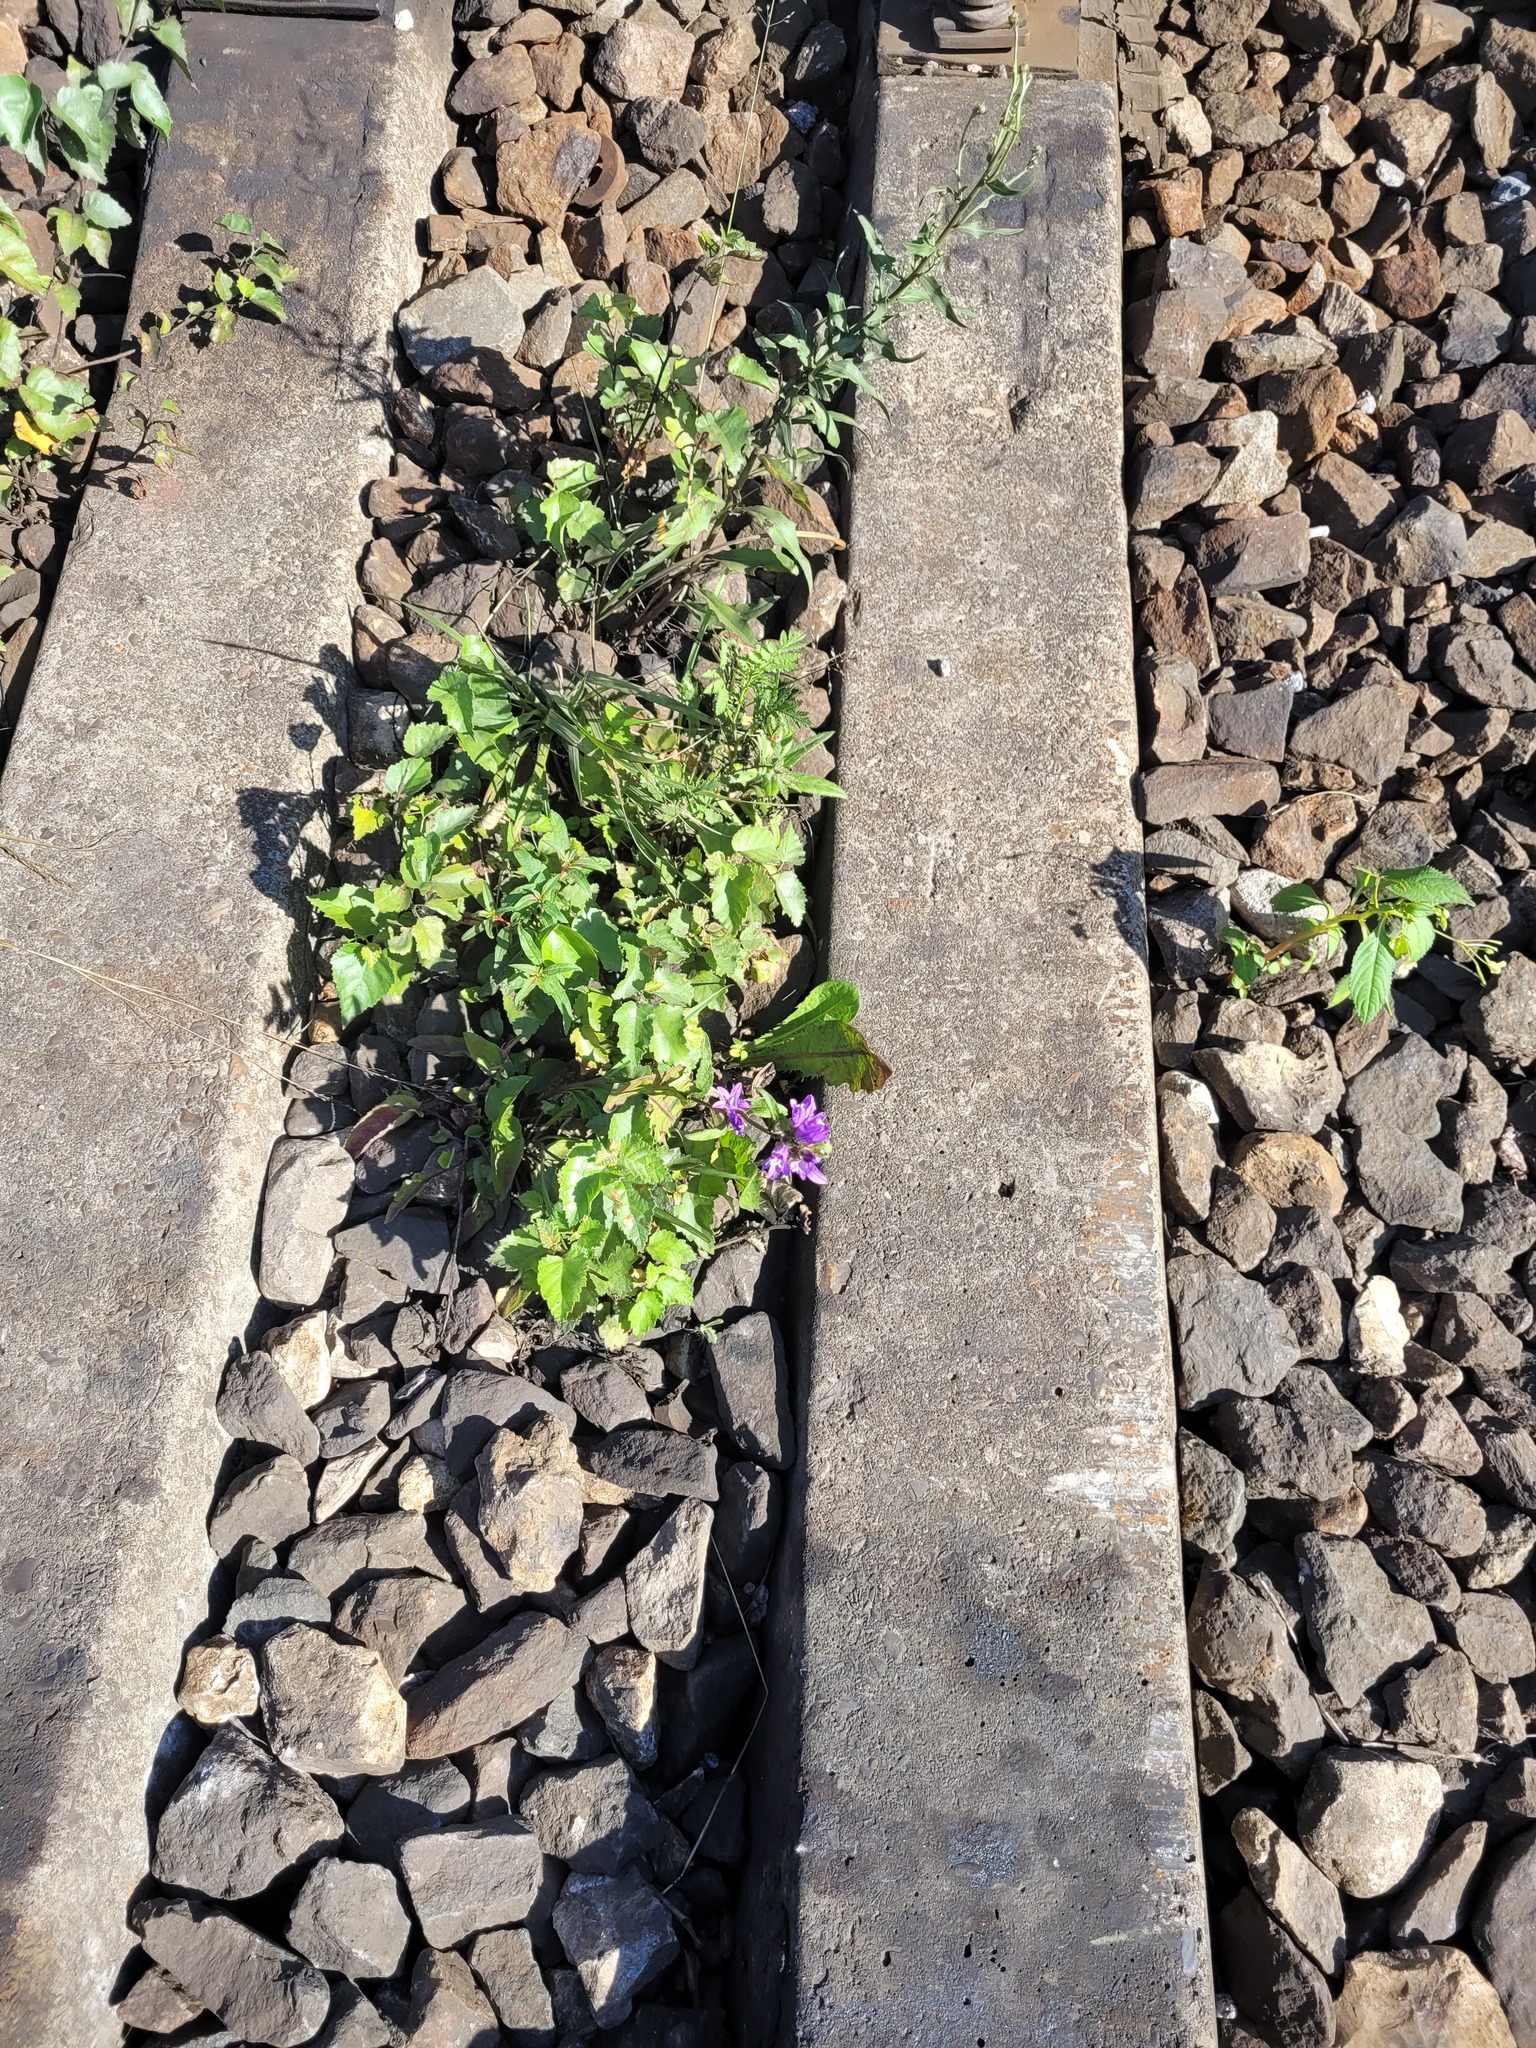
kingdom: Plantae
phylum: Tracheophyta
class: Magnoliopsida
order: Fagales
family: Betulaceae
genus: Betula
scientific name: Betula pubescens
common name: Downy birch
